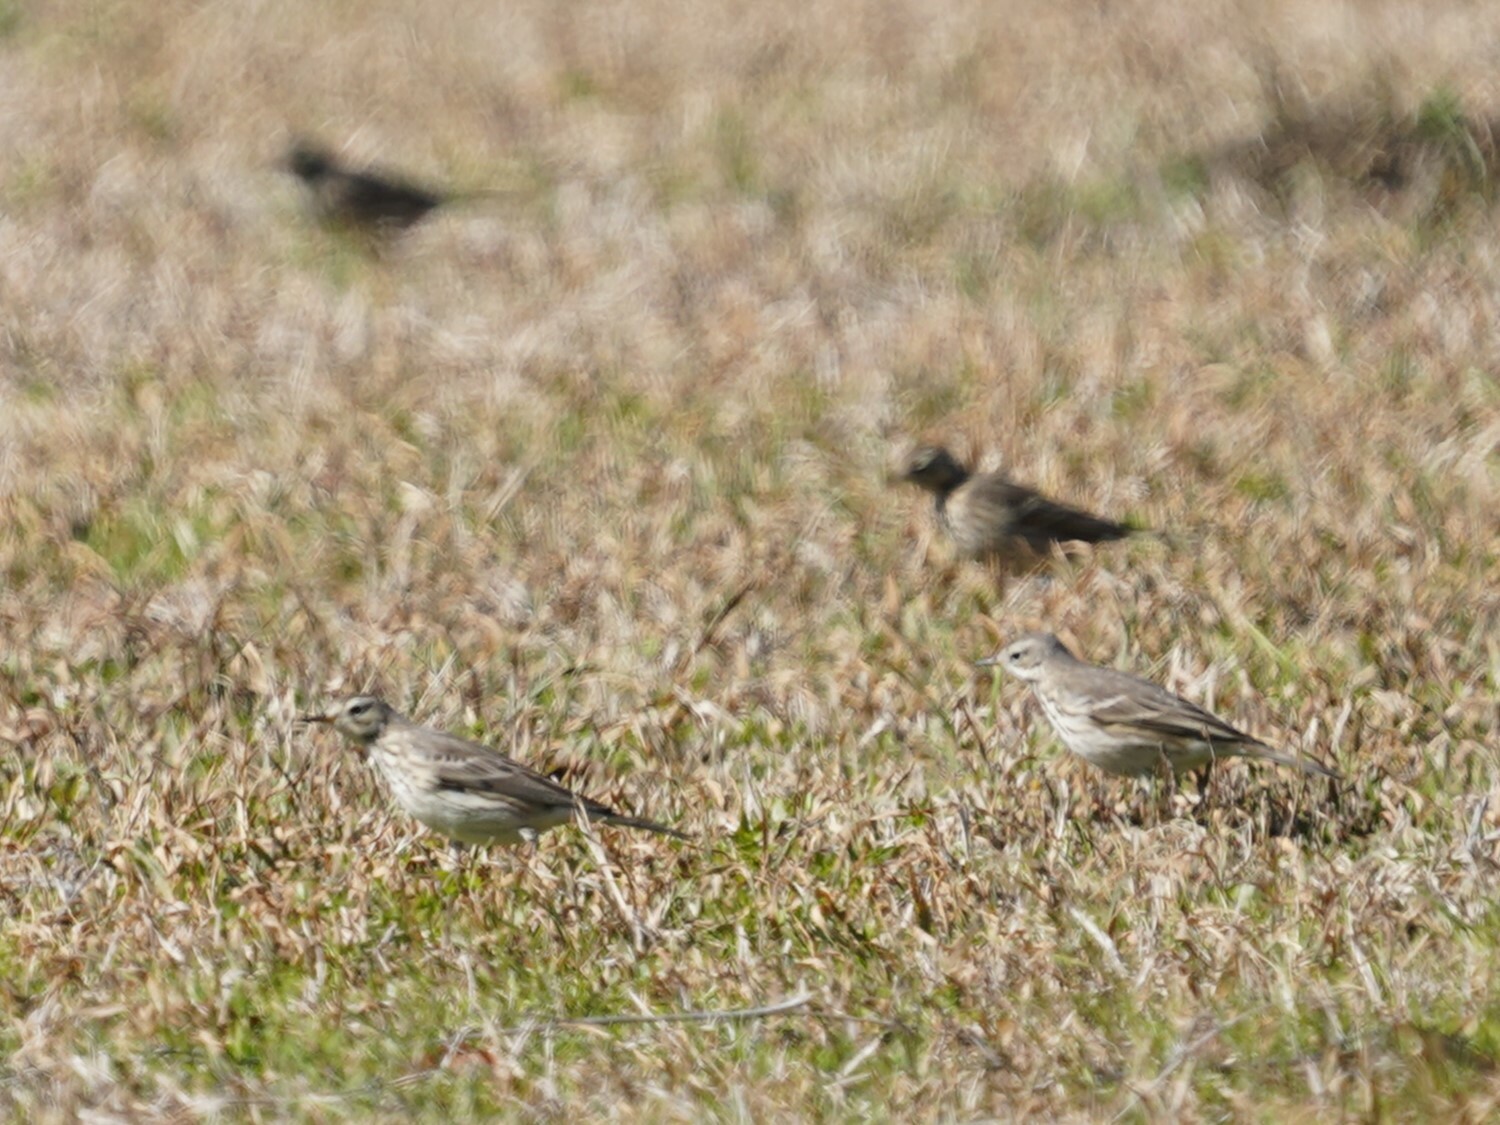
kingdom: Animalia
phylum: Chordata
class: Aves
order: Passeriformes
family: Motacillidae
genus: Anthus
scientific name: Anthus rubescens
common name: Buff-bellied pipit
